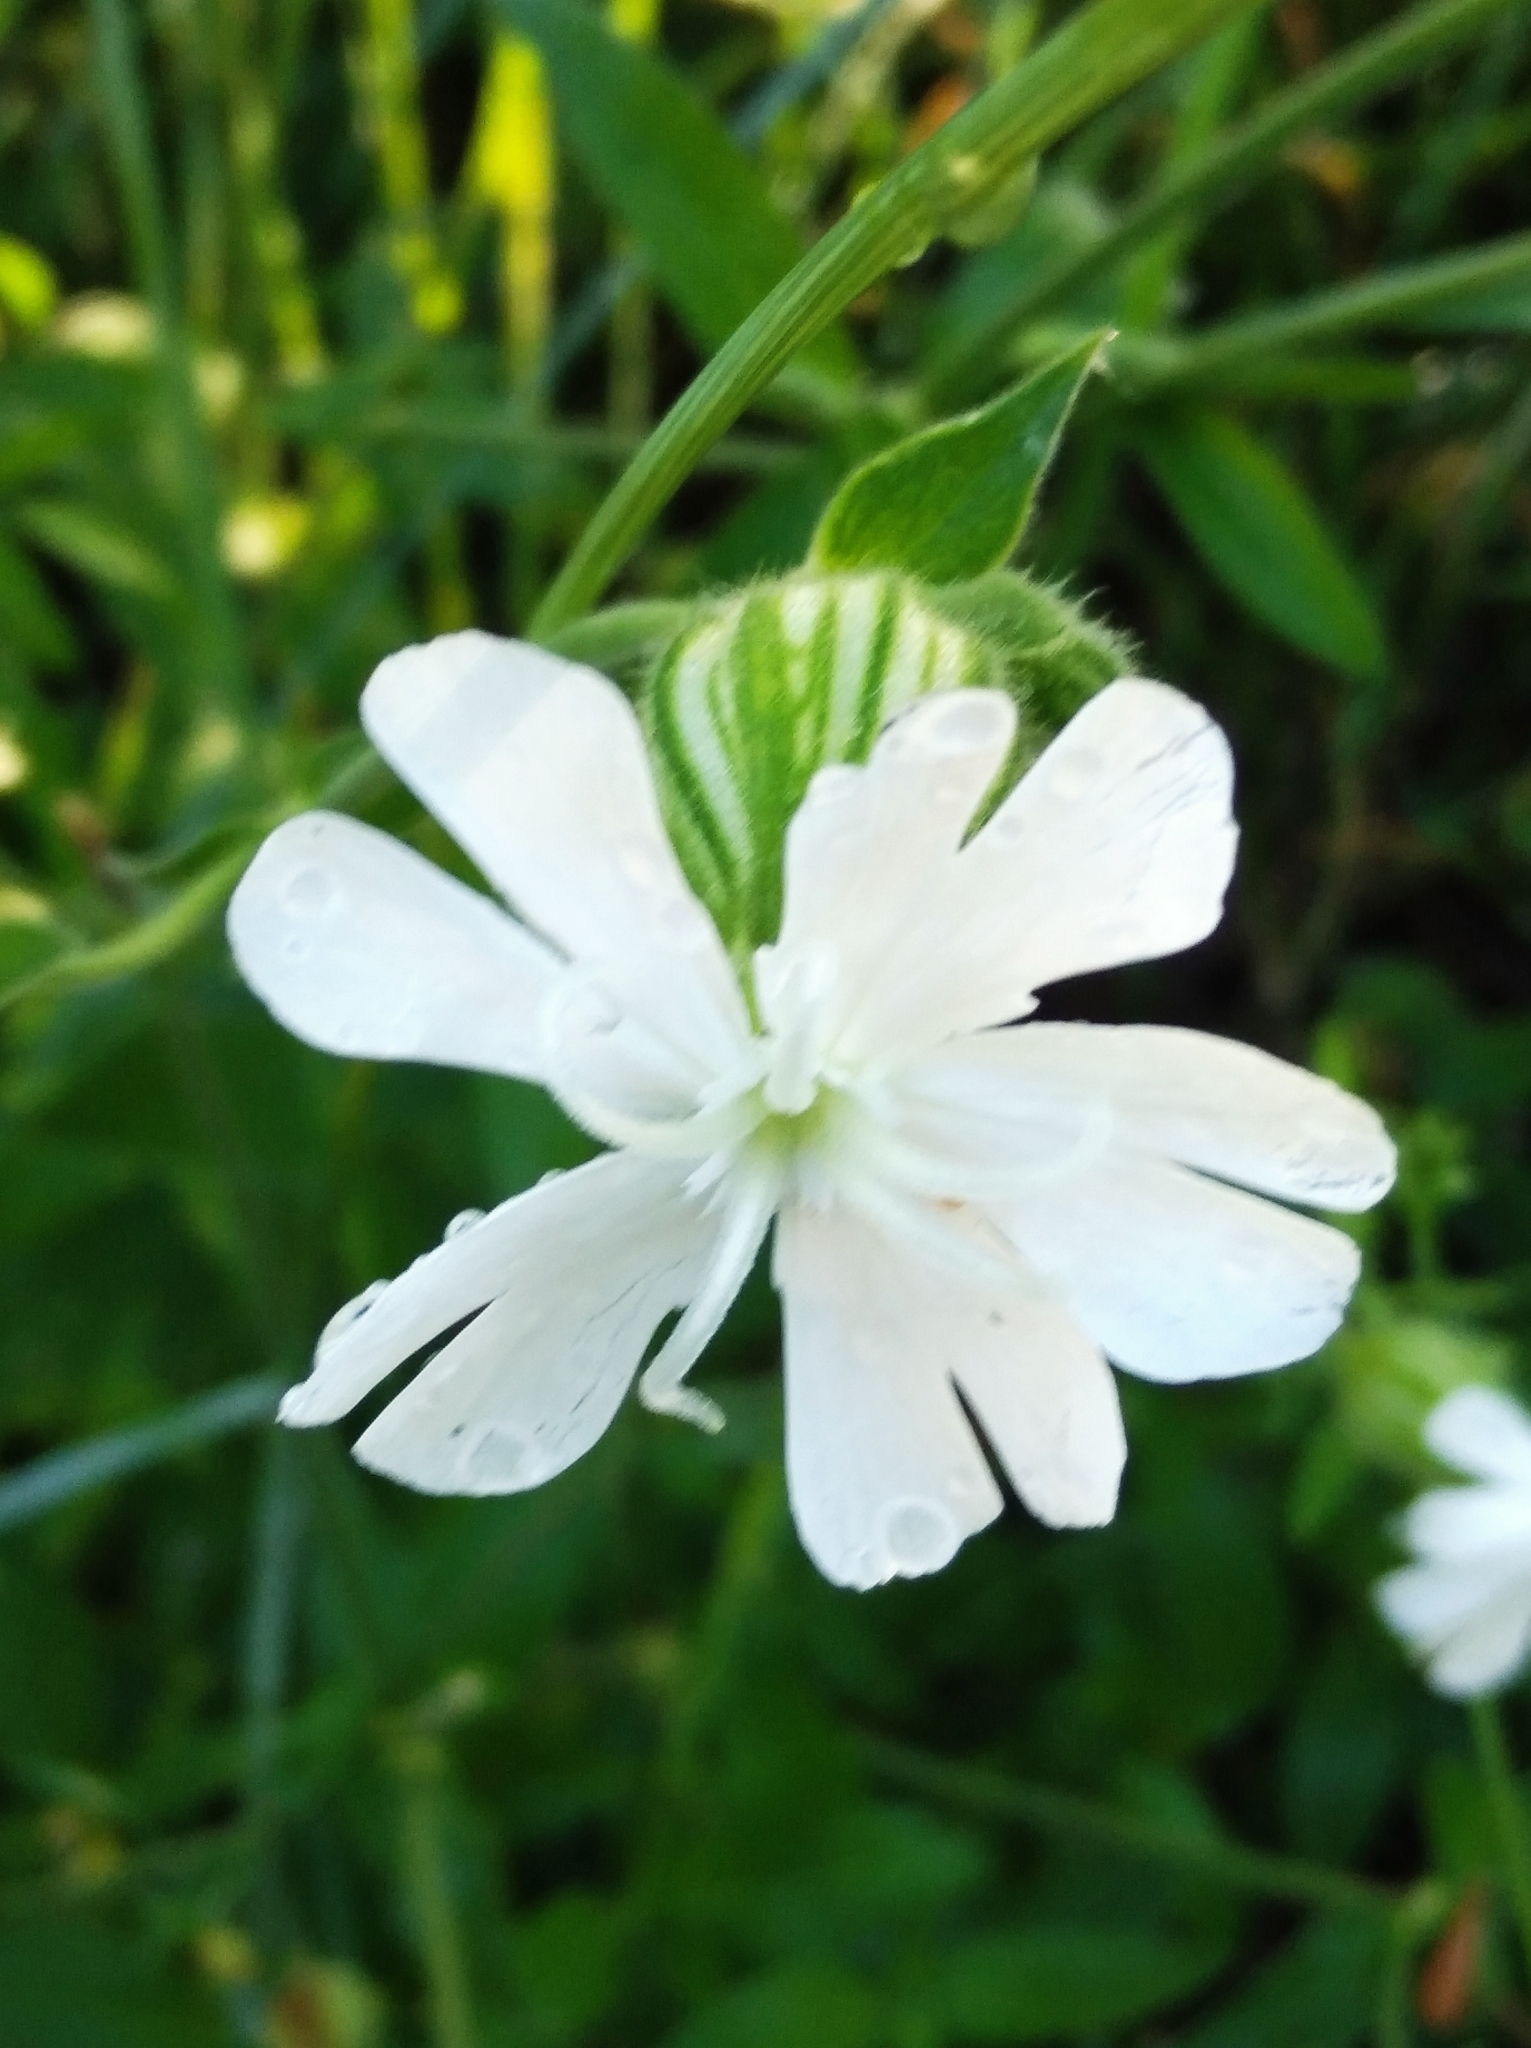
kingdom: Plantae
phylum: Tracheophyta
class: Magnoliopsida
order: Caryophyllales
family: Caryophyllaceae
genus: Silene
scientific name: Silene latifolia
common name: White campion
